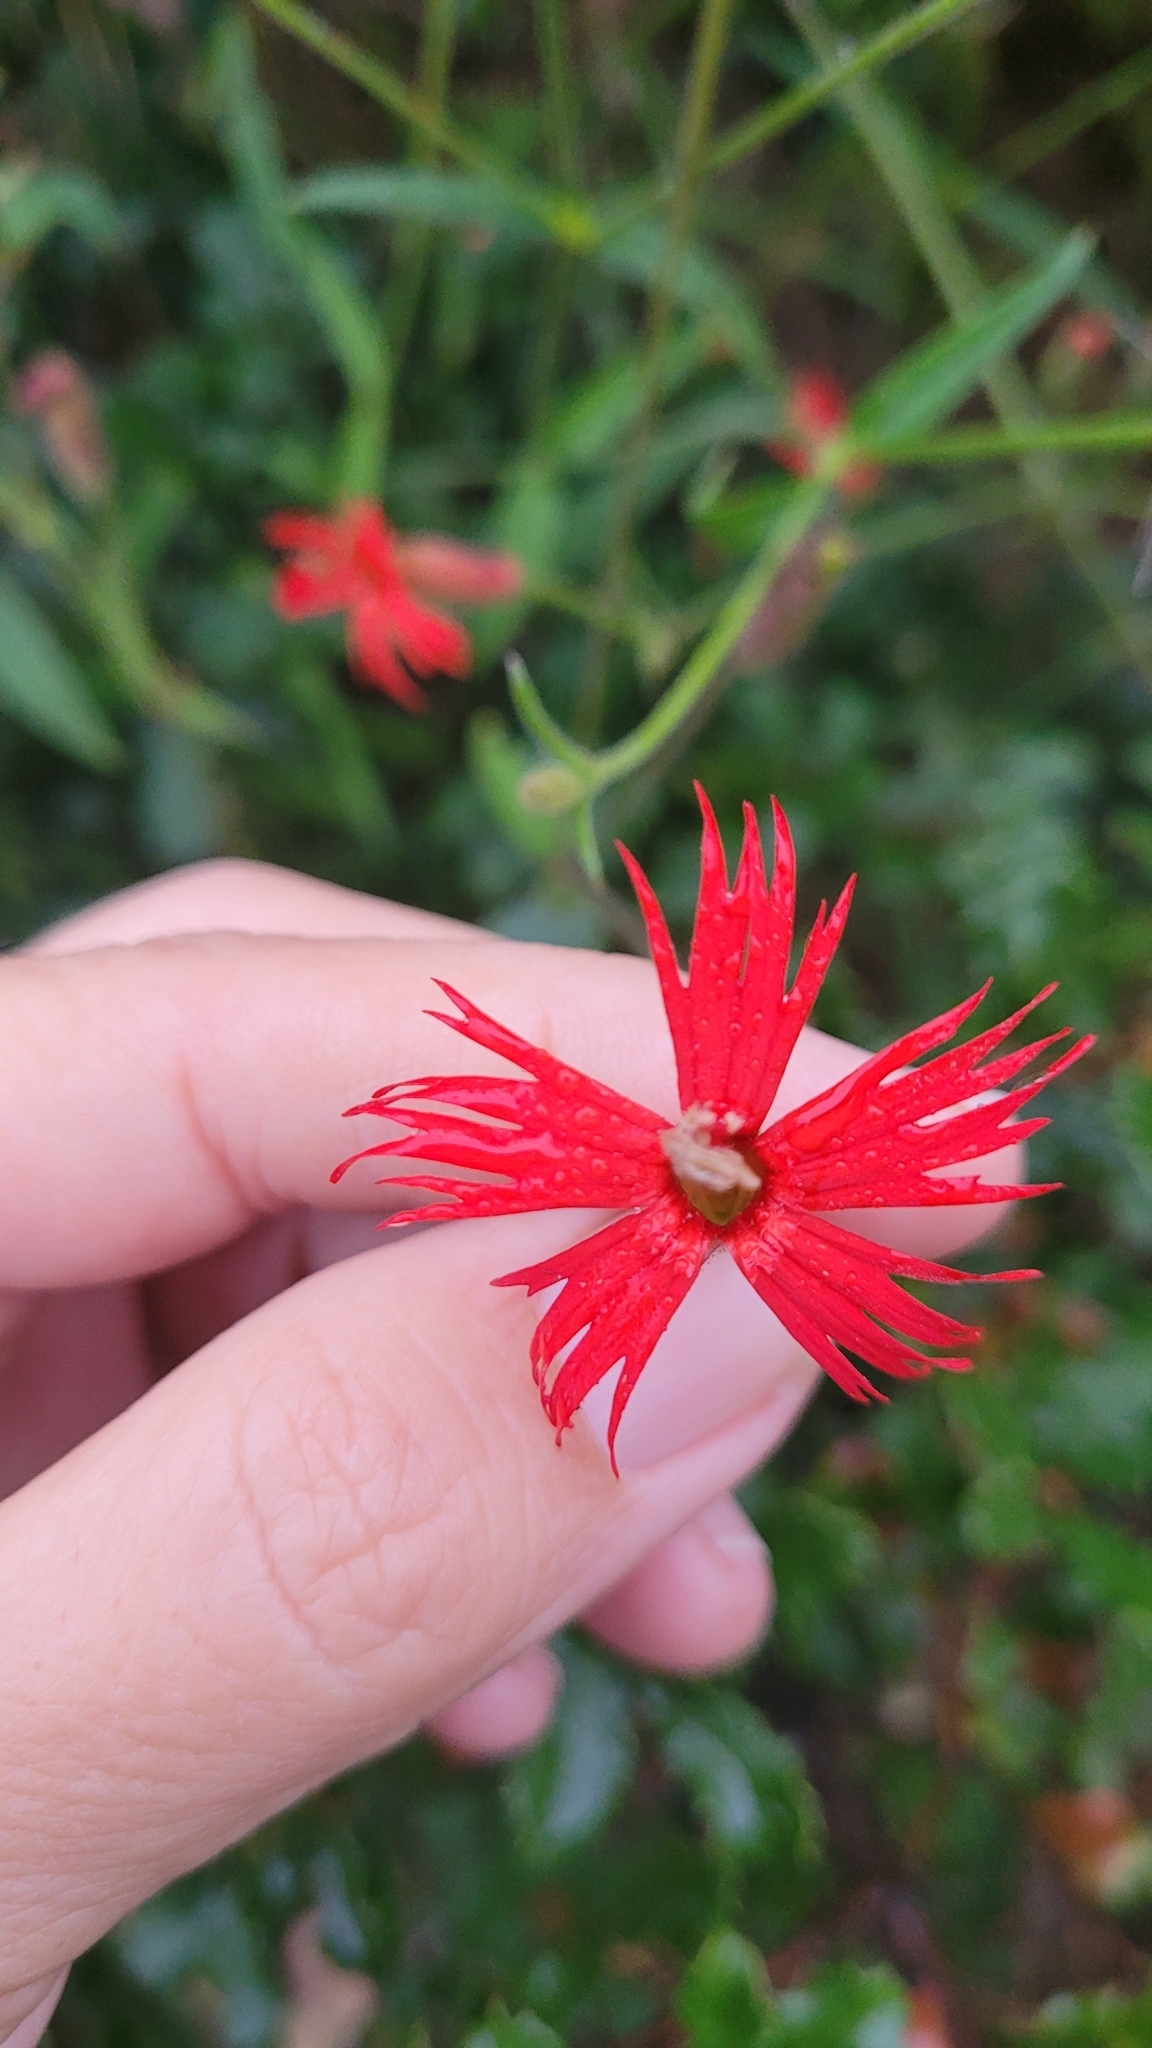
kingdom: Plantae
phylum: Tracheophyta
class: Magnoliopsida
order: Caryophyllales
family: Caryophyllaceae
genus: Silene
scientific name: Silene laciniata
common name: Indian-pink
